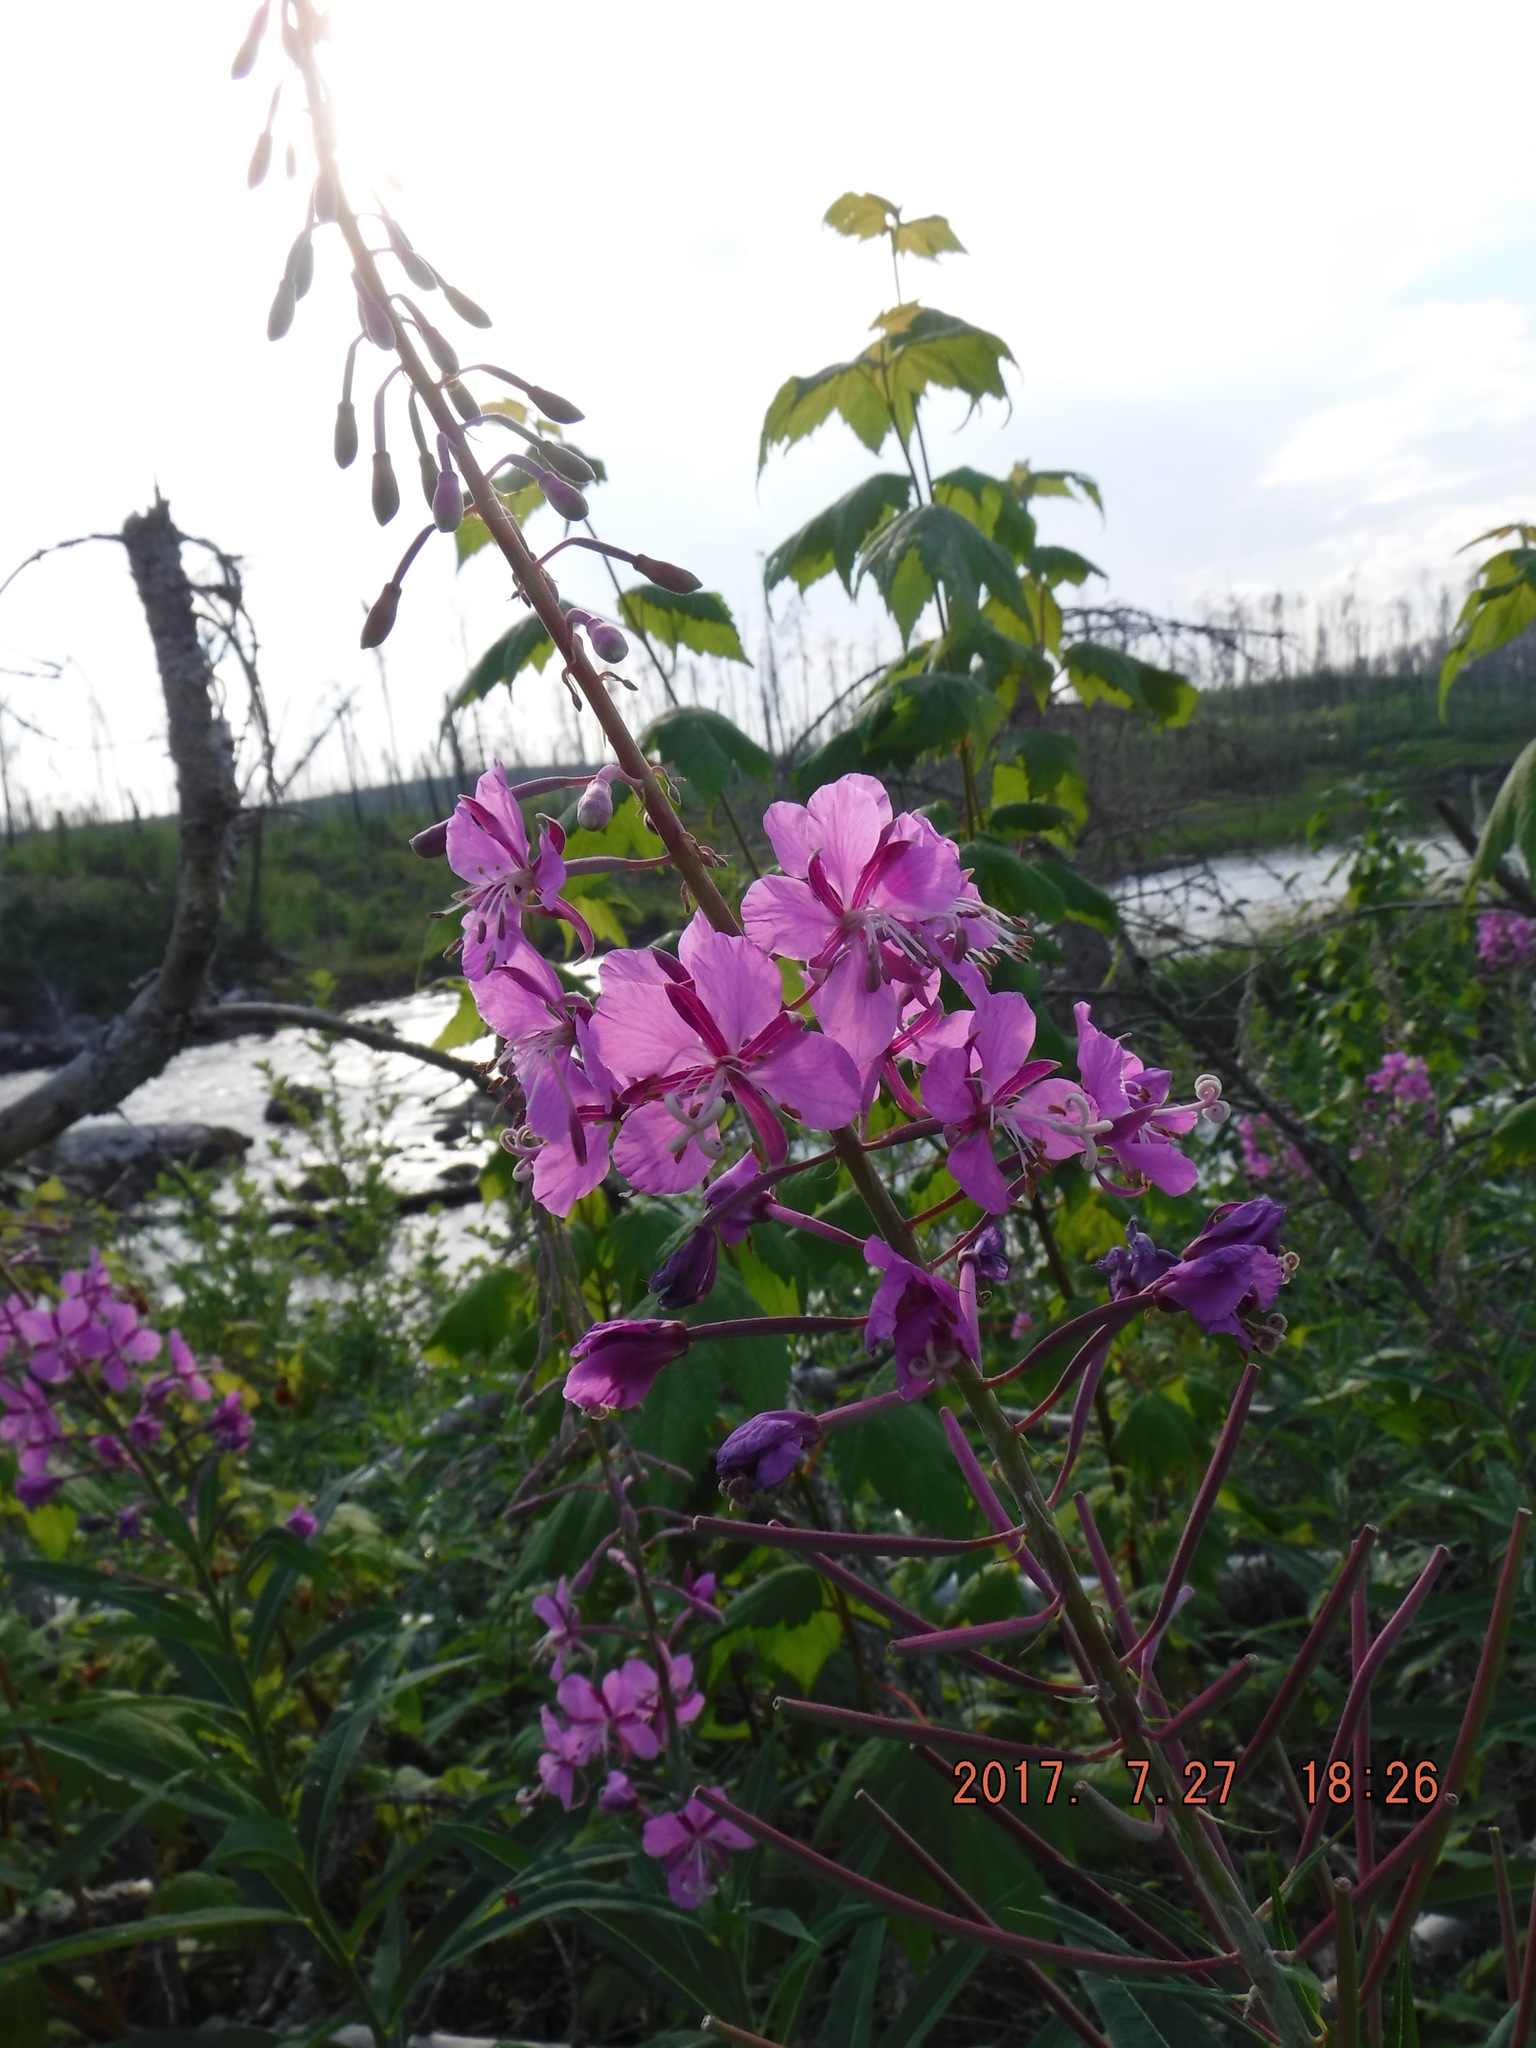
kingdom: Plantae
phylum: Tracheophyta
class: Magnoliopsida
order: Myrtales
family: Onagraceae
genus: Chamaenerion
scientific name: Chamaenerion angustifolium
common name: Fireweed
